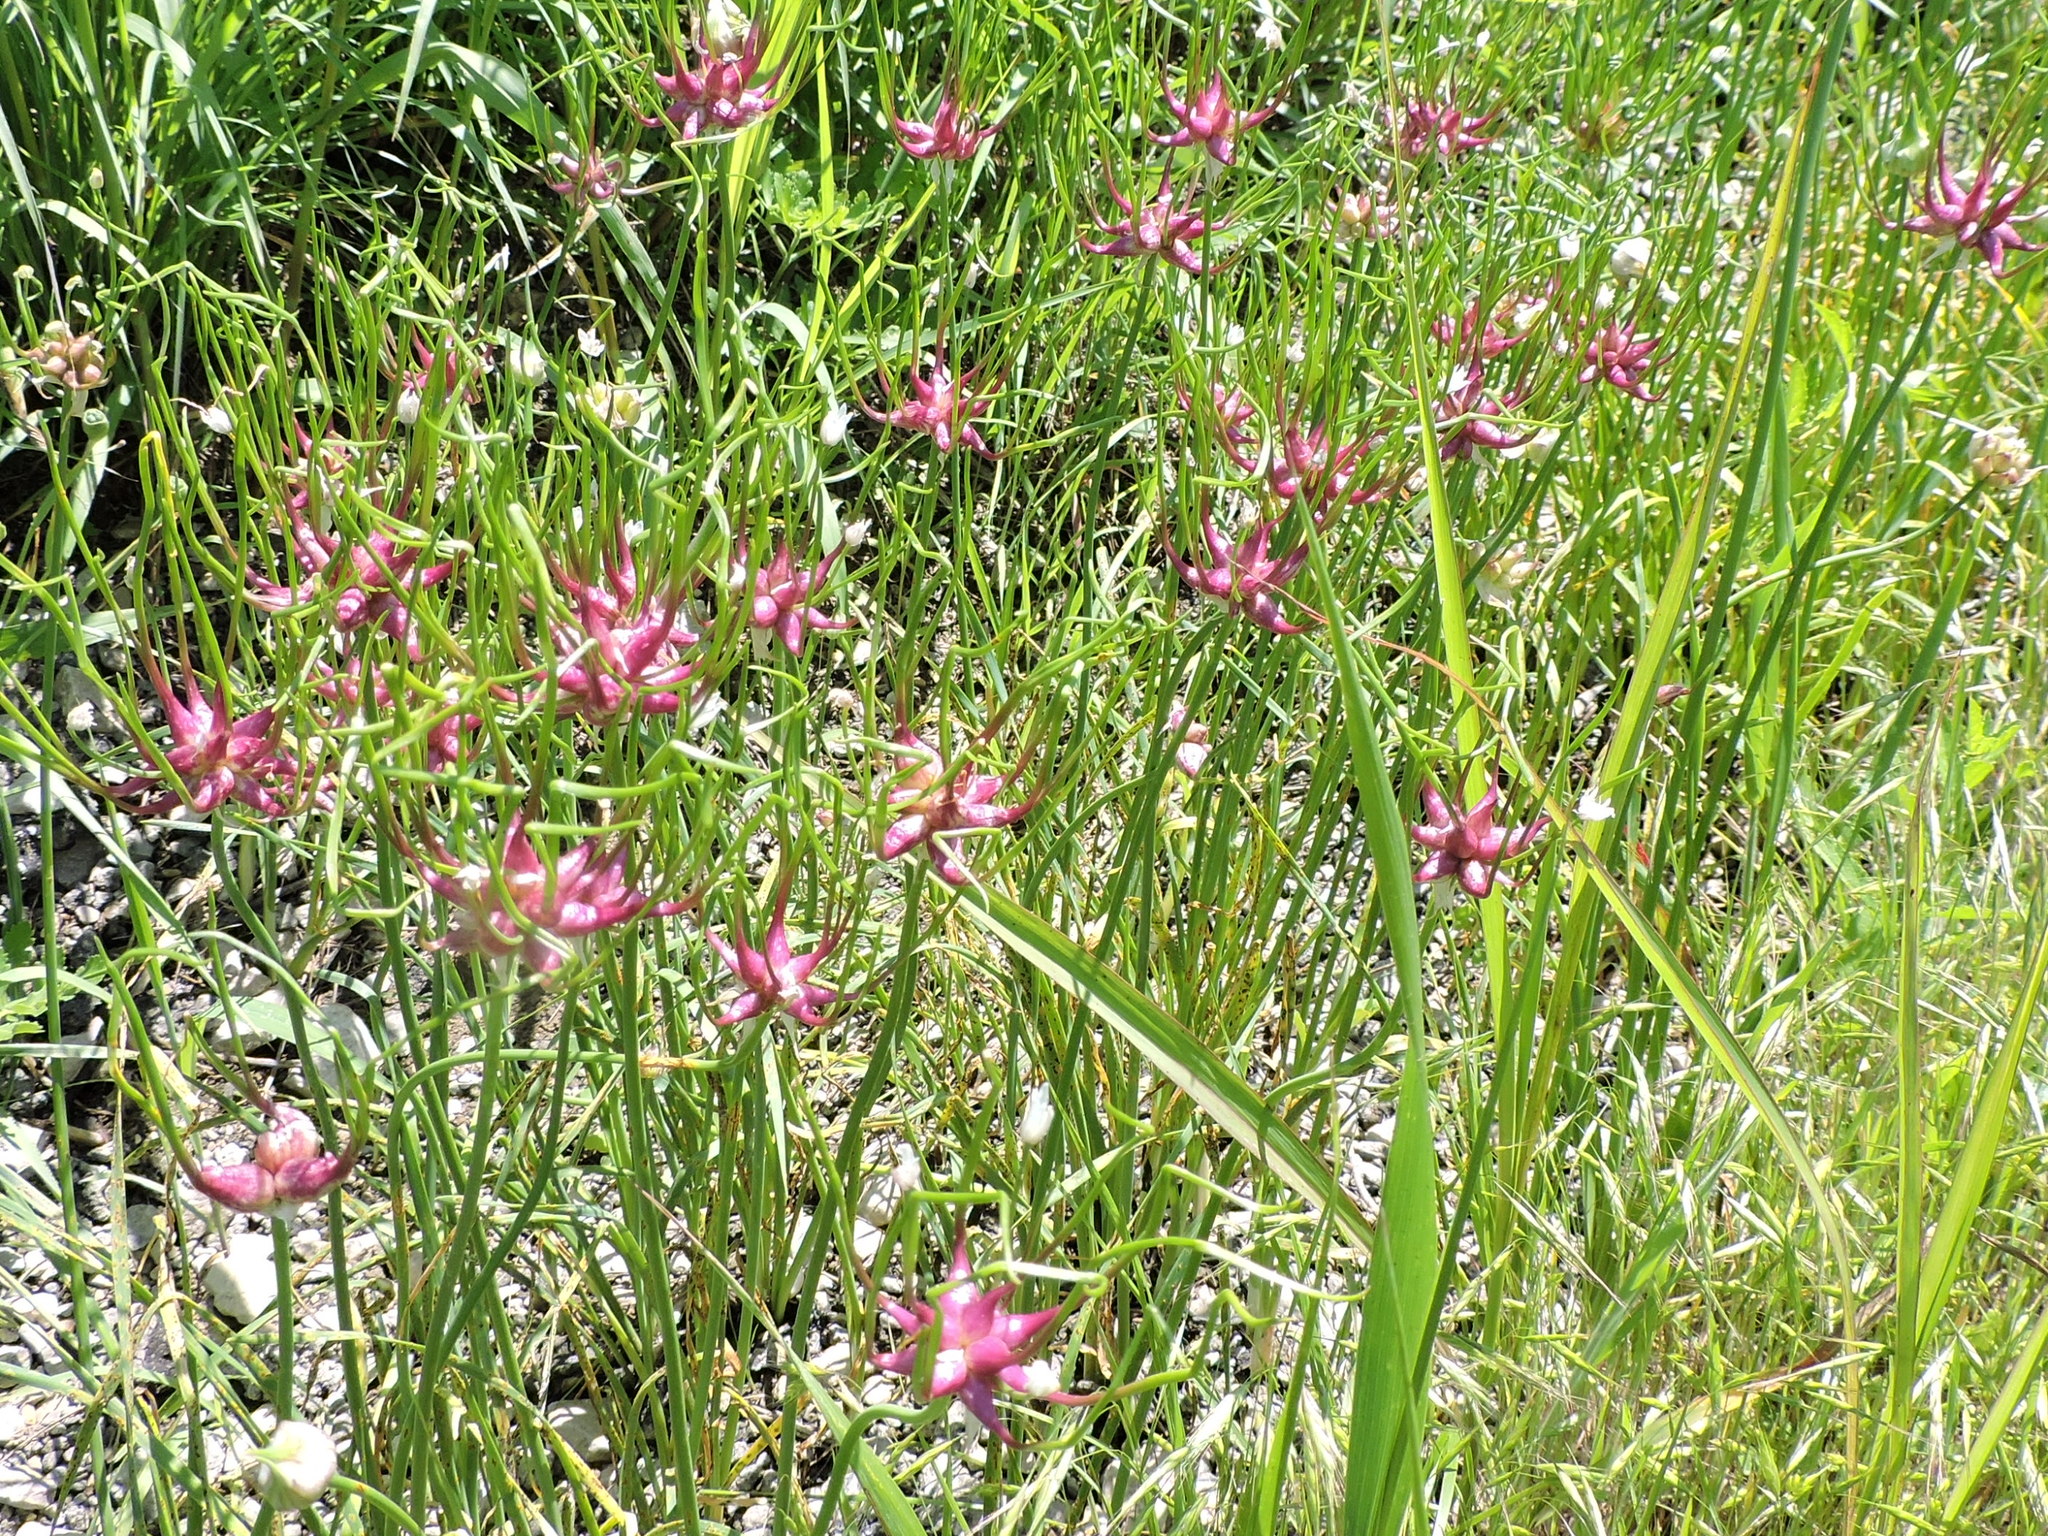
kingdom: Plantae
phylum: Tracheophyta
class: Liliopsida
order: Asparagales
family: Amaryllidaceae
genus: Allium
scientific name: Allium canadense
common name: Meadow garlic
